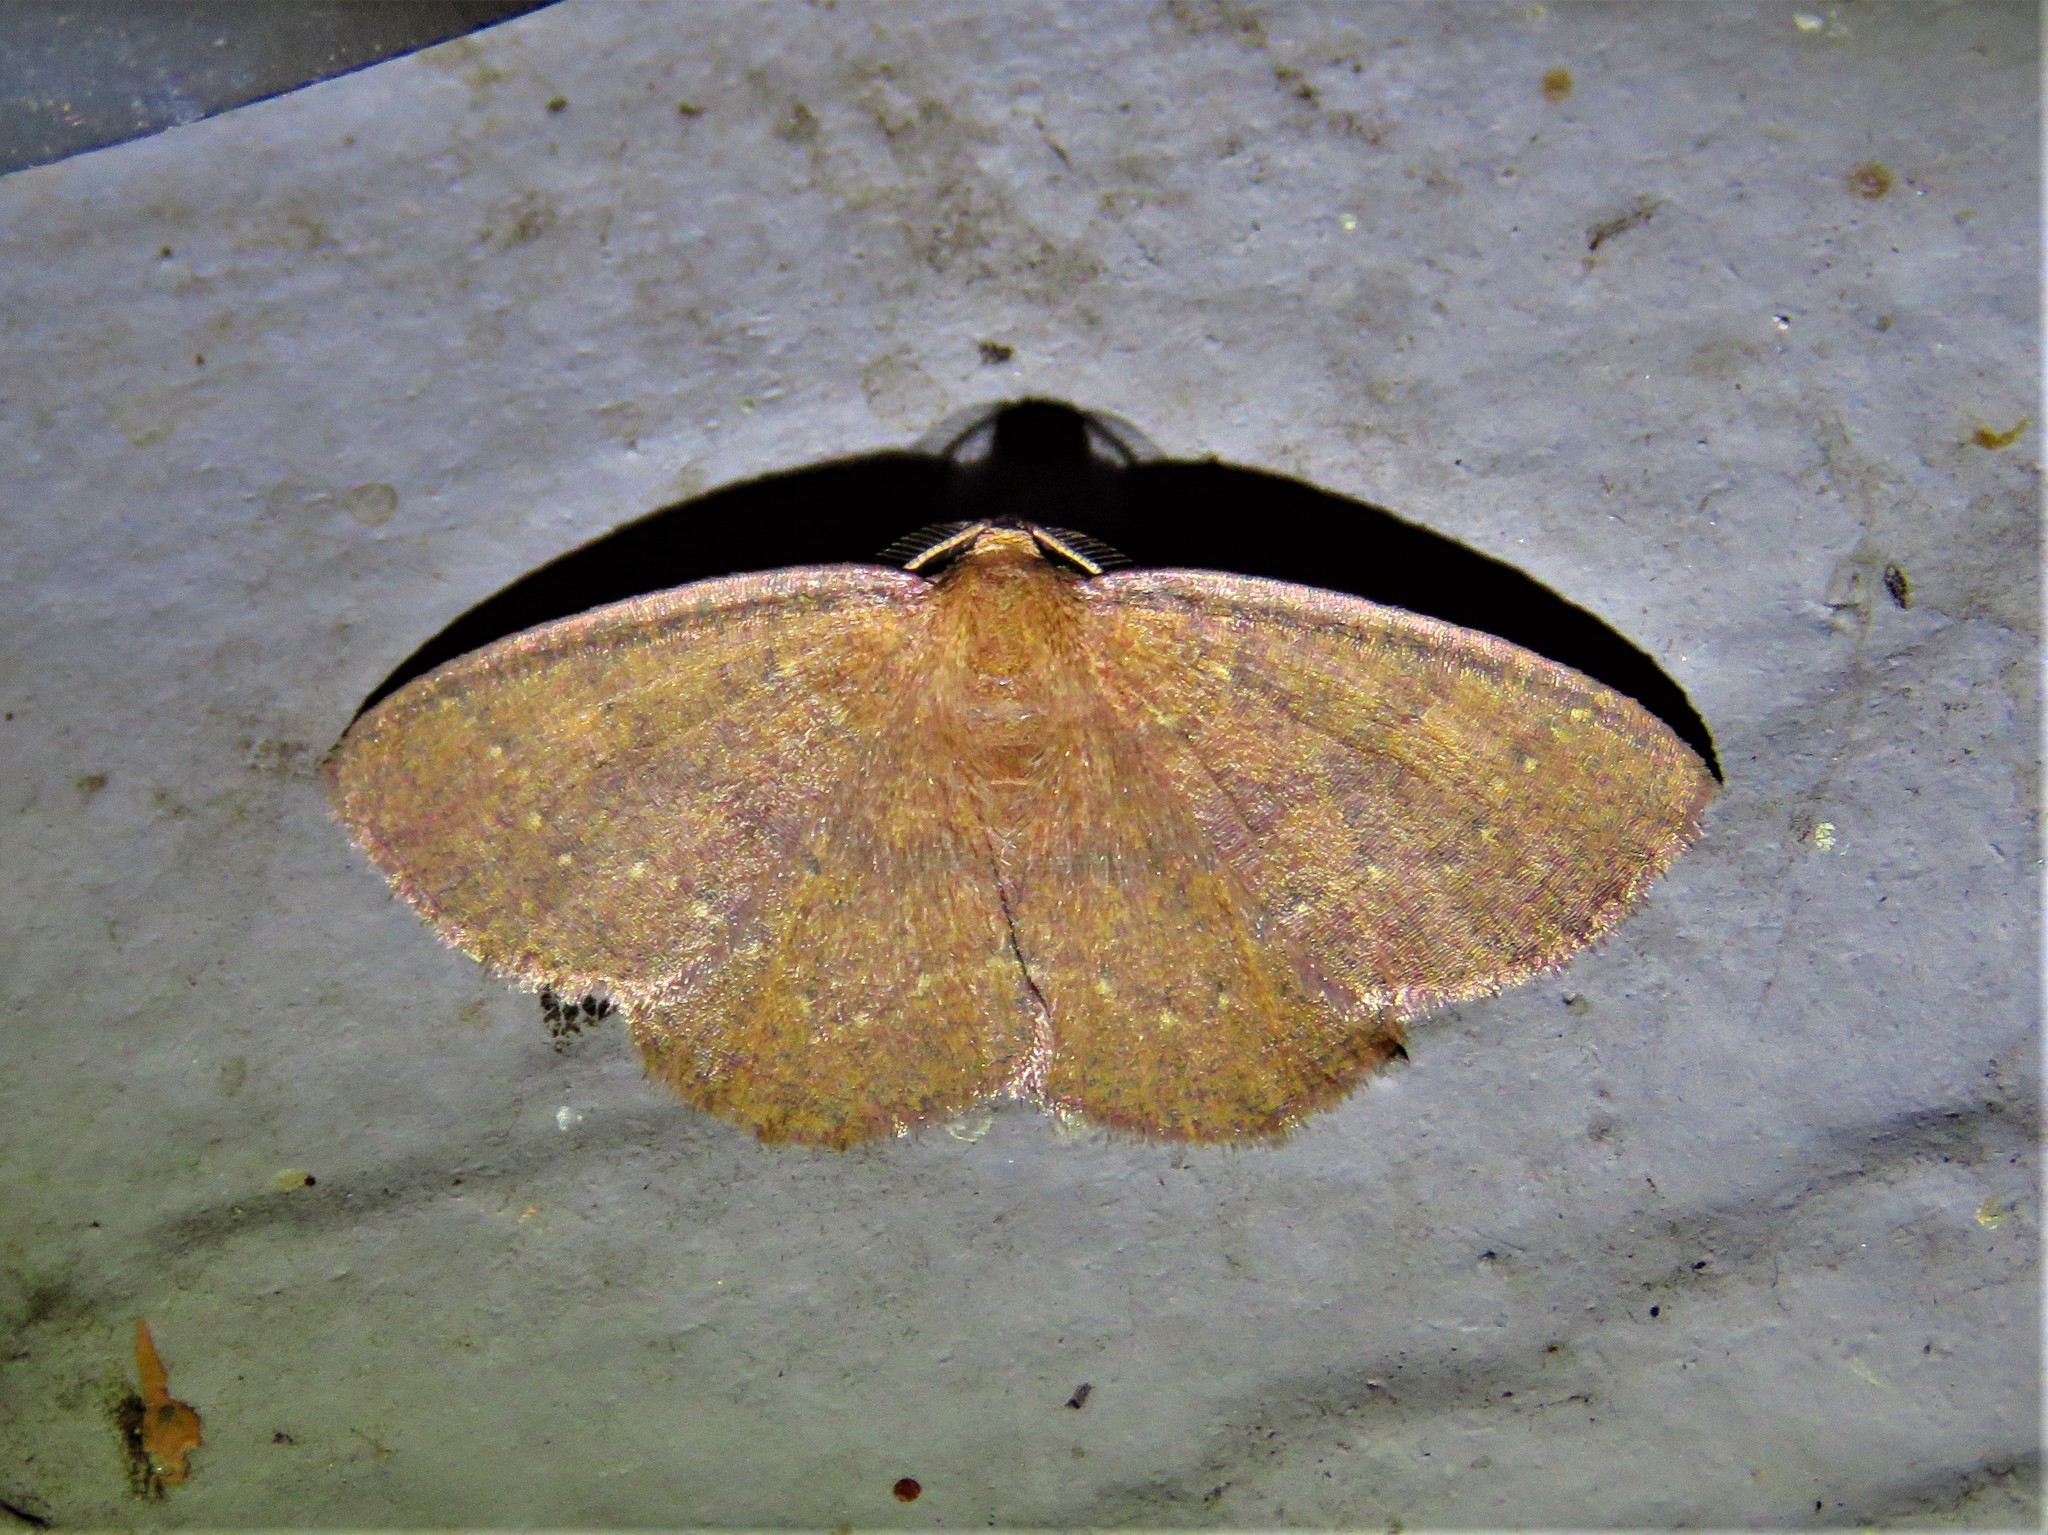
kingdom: Animalia
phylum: Arthropoda
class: Insecta
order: Lepidoptera
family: Geometridae
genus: Ilexia
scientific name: Ilexia intractata
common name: Black-dotted ruddy moth
